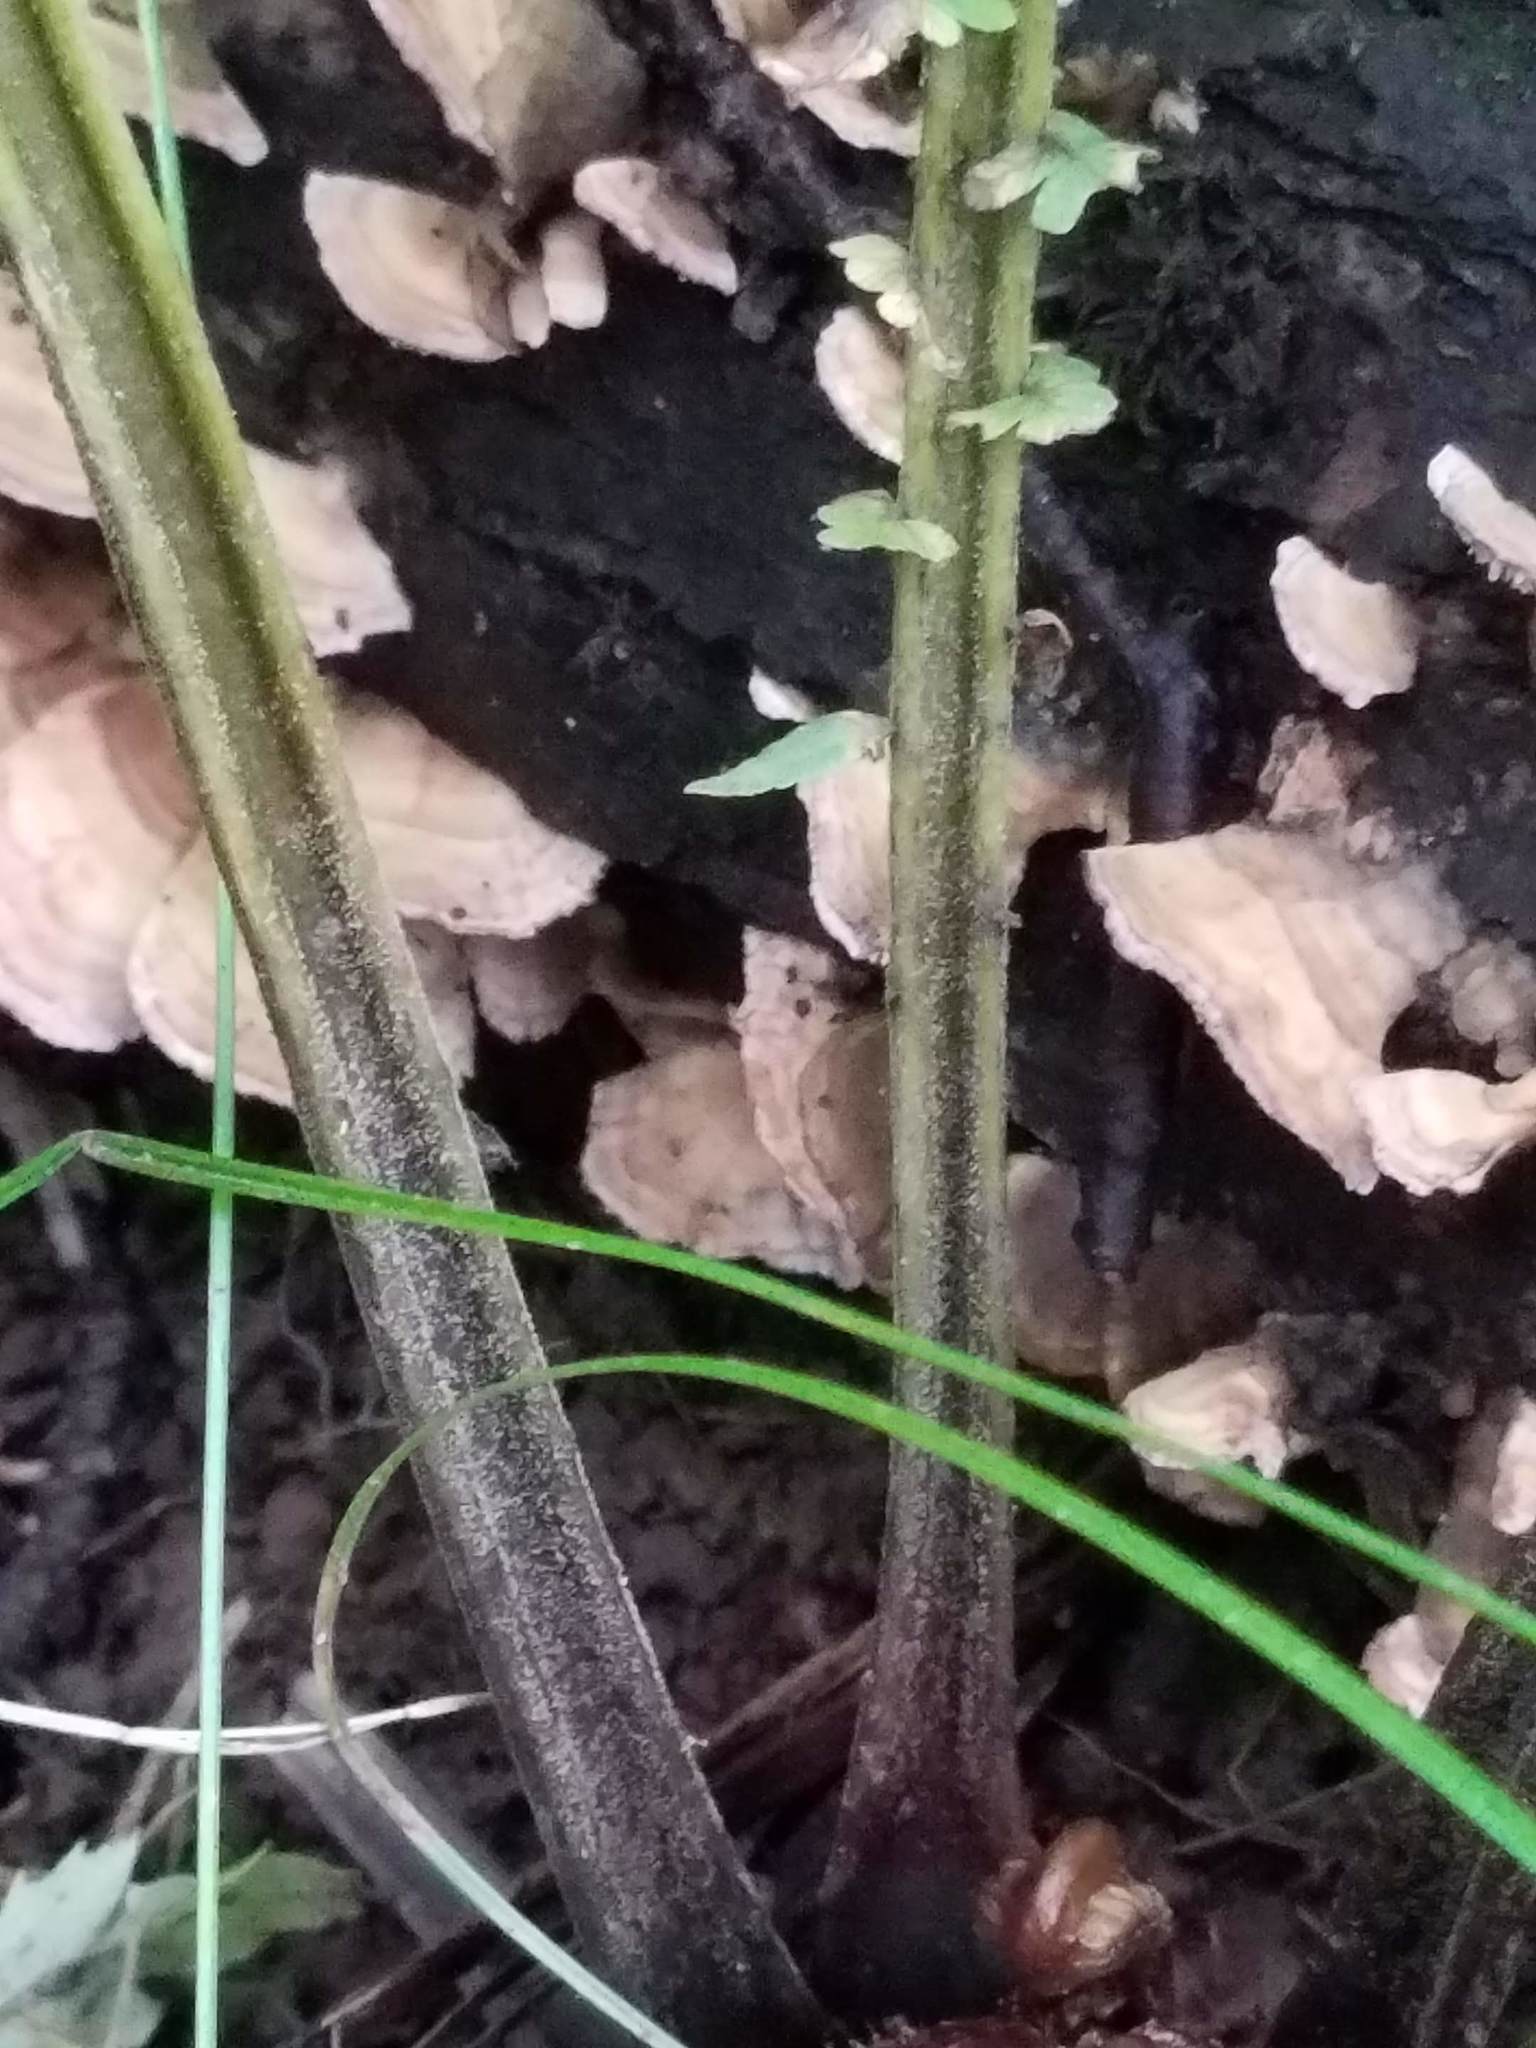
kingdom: Plantae
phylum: Tracheophyta
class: Polypodiopsida
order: Polypodiales
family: Onocleaceae
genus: Matteuccia
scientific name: Matteuccia struthiopteris
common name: Ostrich fern
